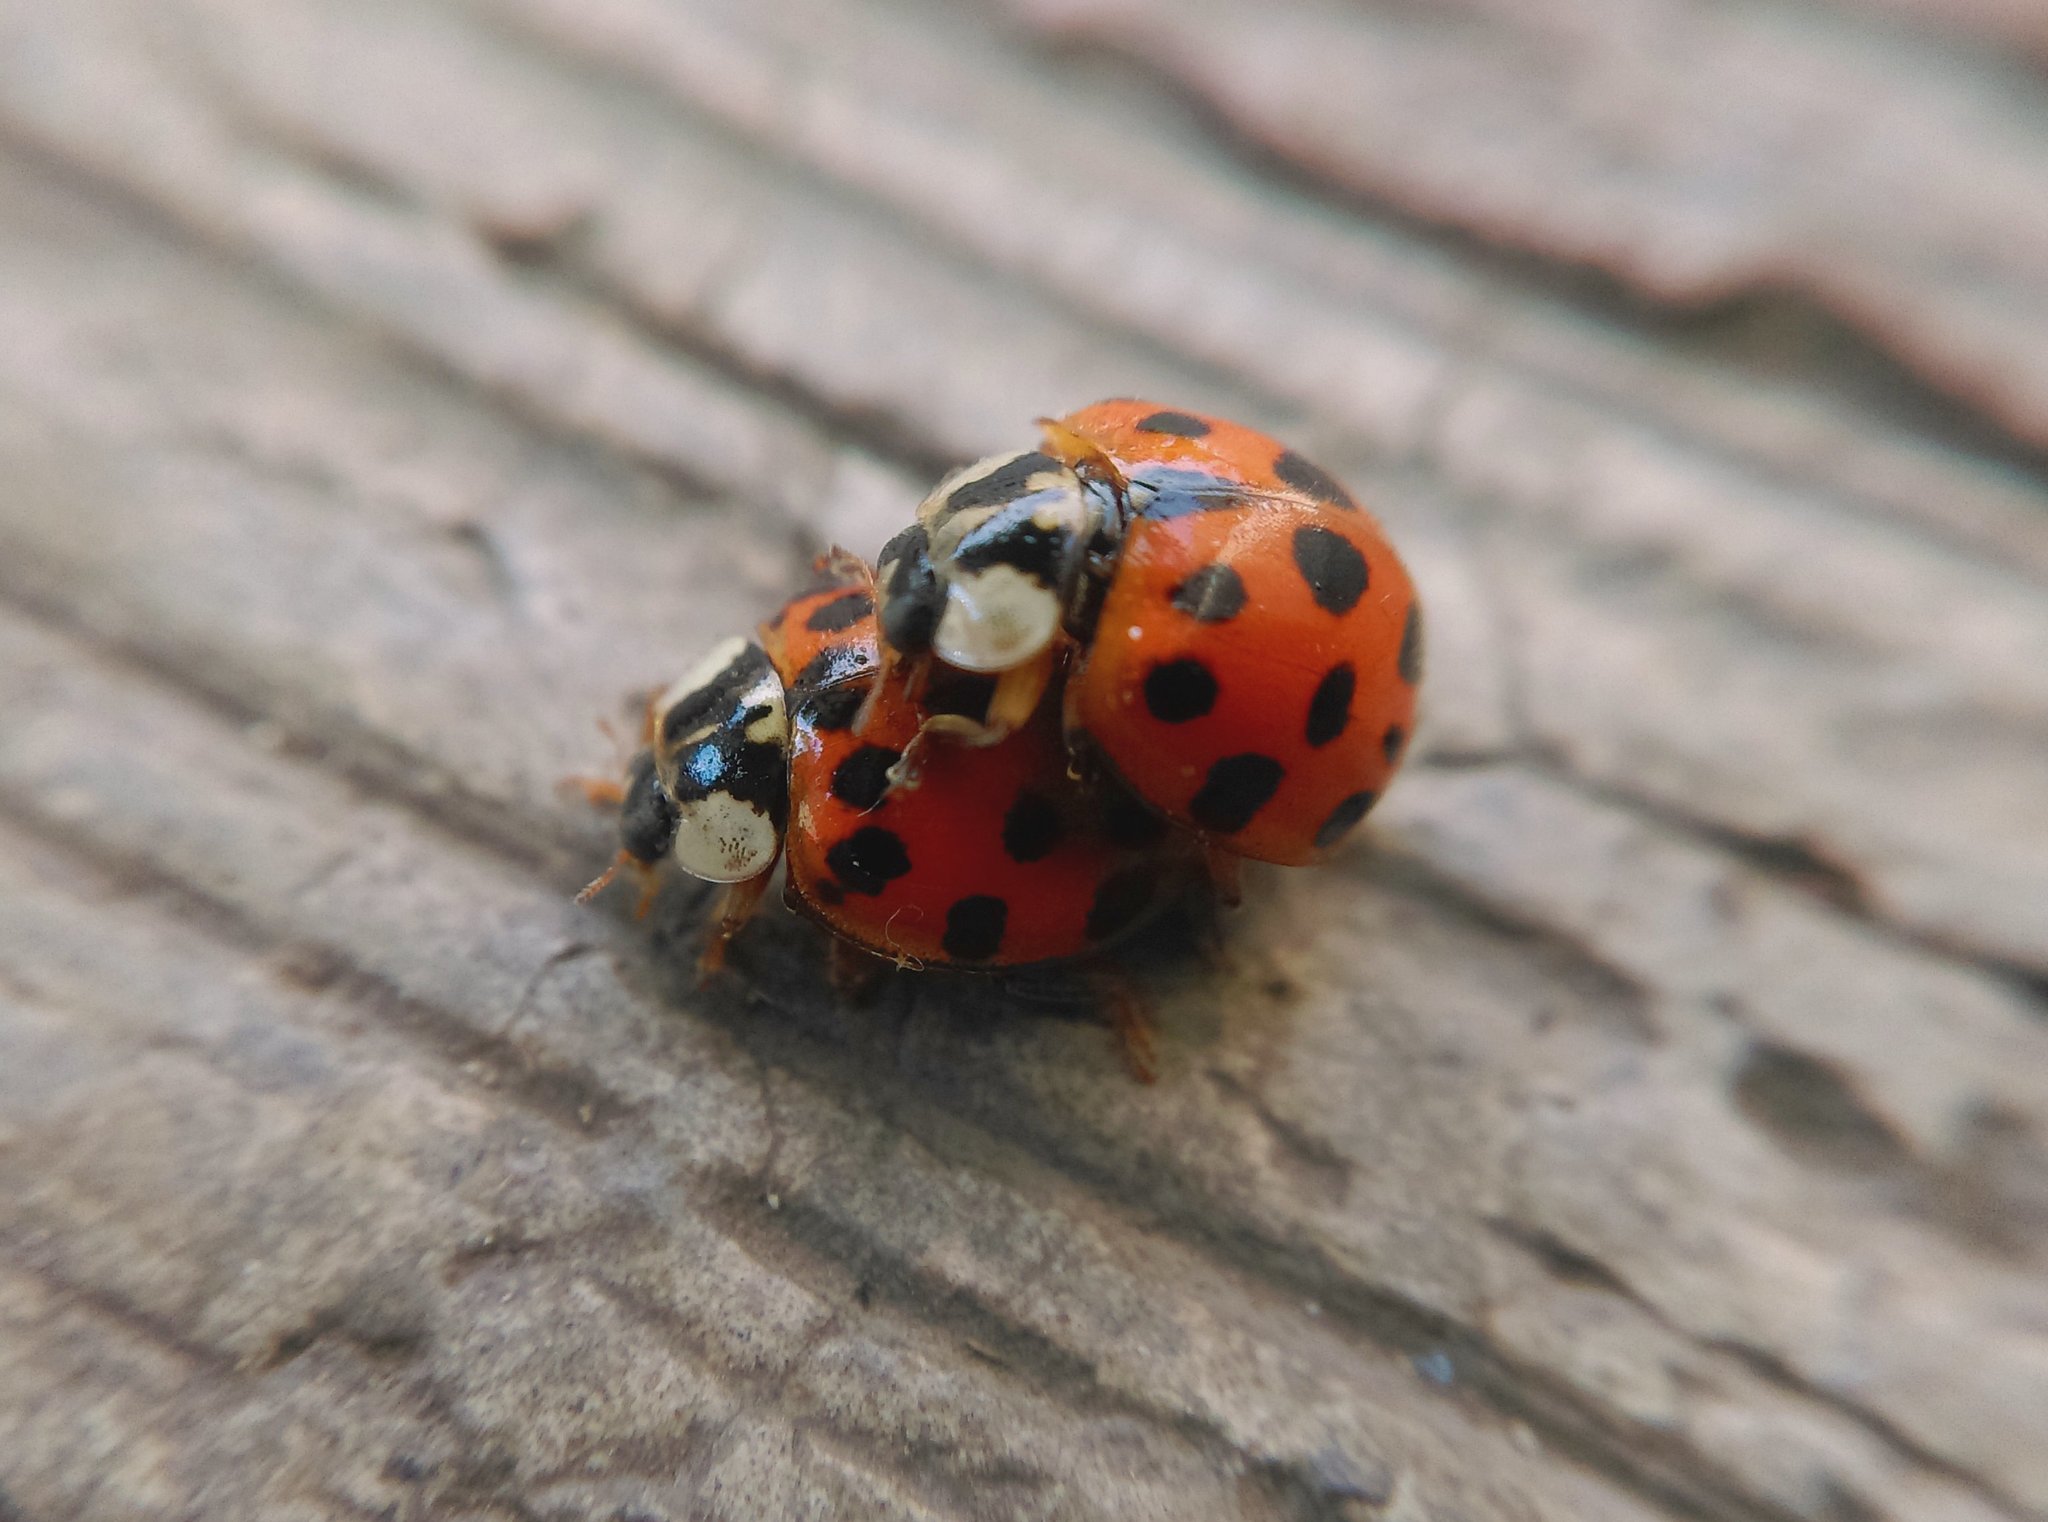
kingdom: Animalia
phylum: Arthropoda
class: Insecta
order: Coleoptera
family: Coccinellidae
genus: Harmonia
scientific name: Harmonia axyridis
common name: Harlequin ladybird
